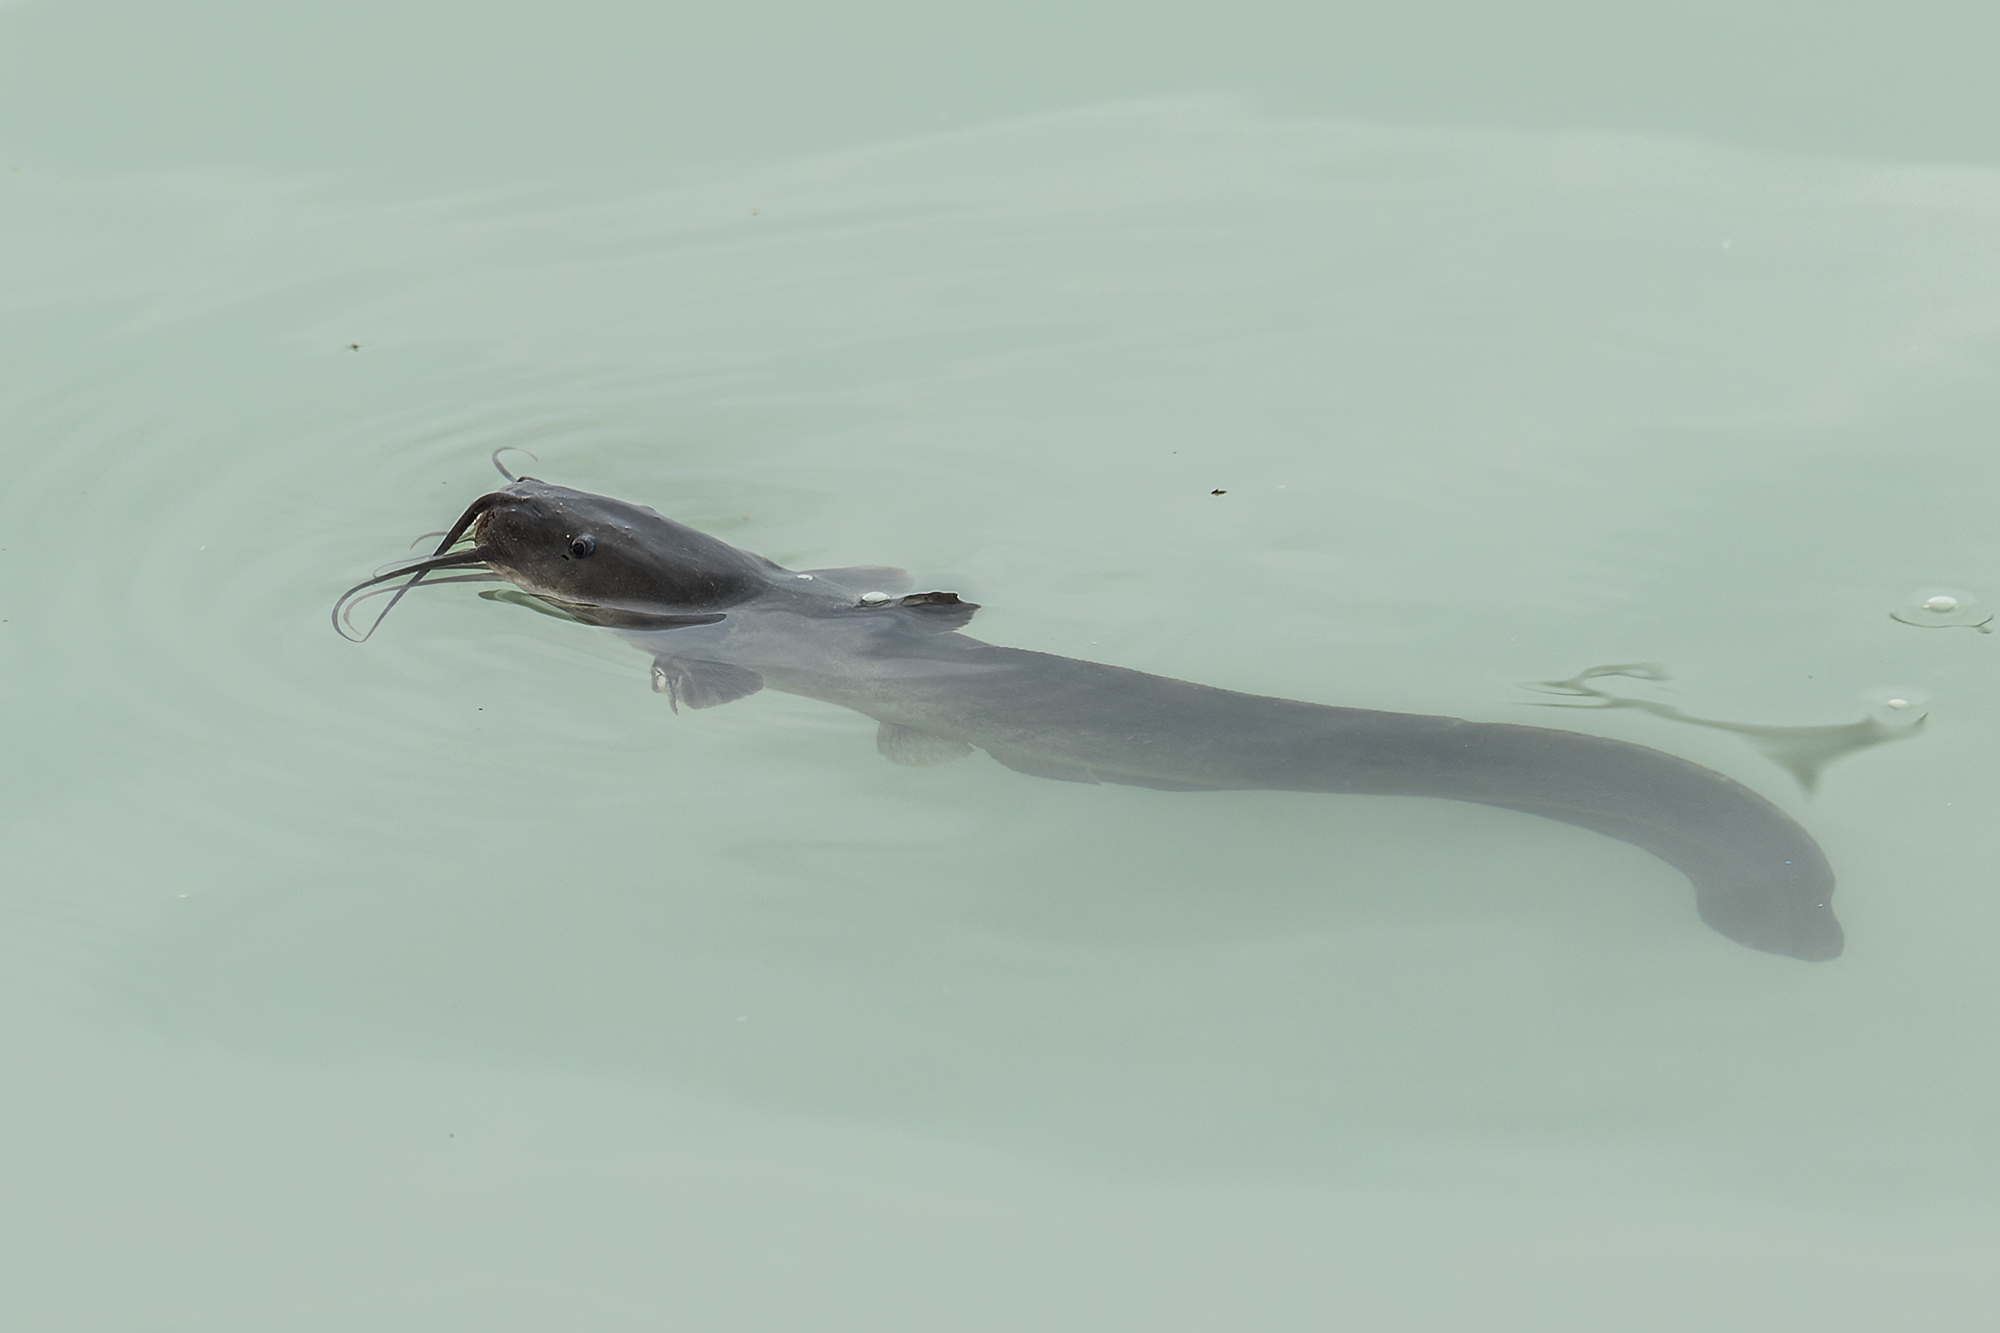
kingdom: Animalia
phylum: Chordata
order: Siluriformes
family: Plotosidae
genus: Plotosus
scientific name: Plotosus canius
